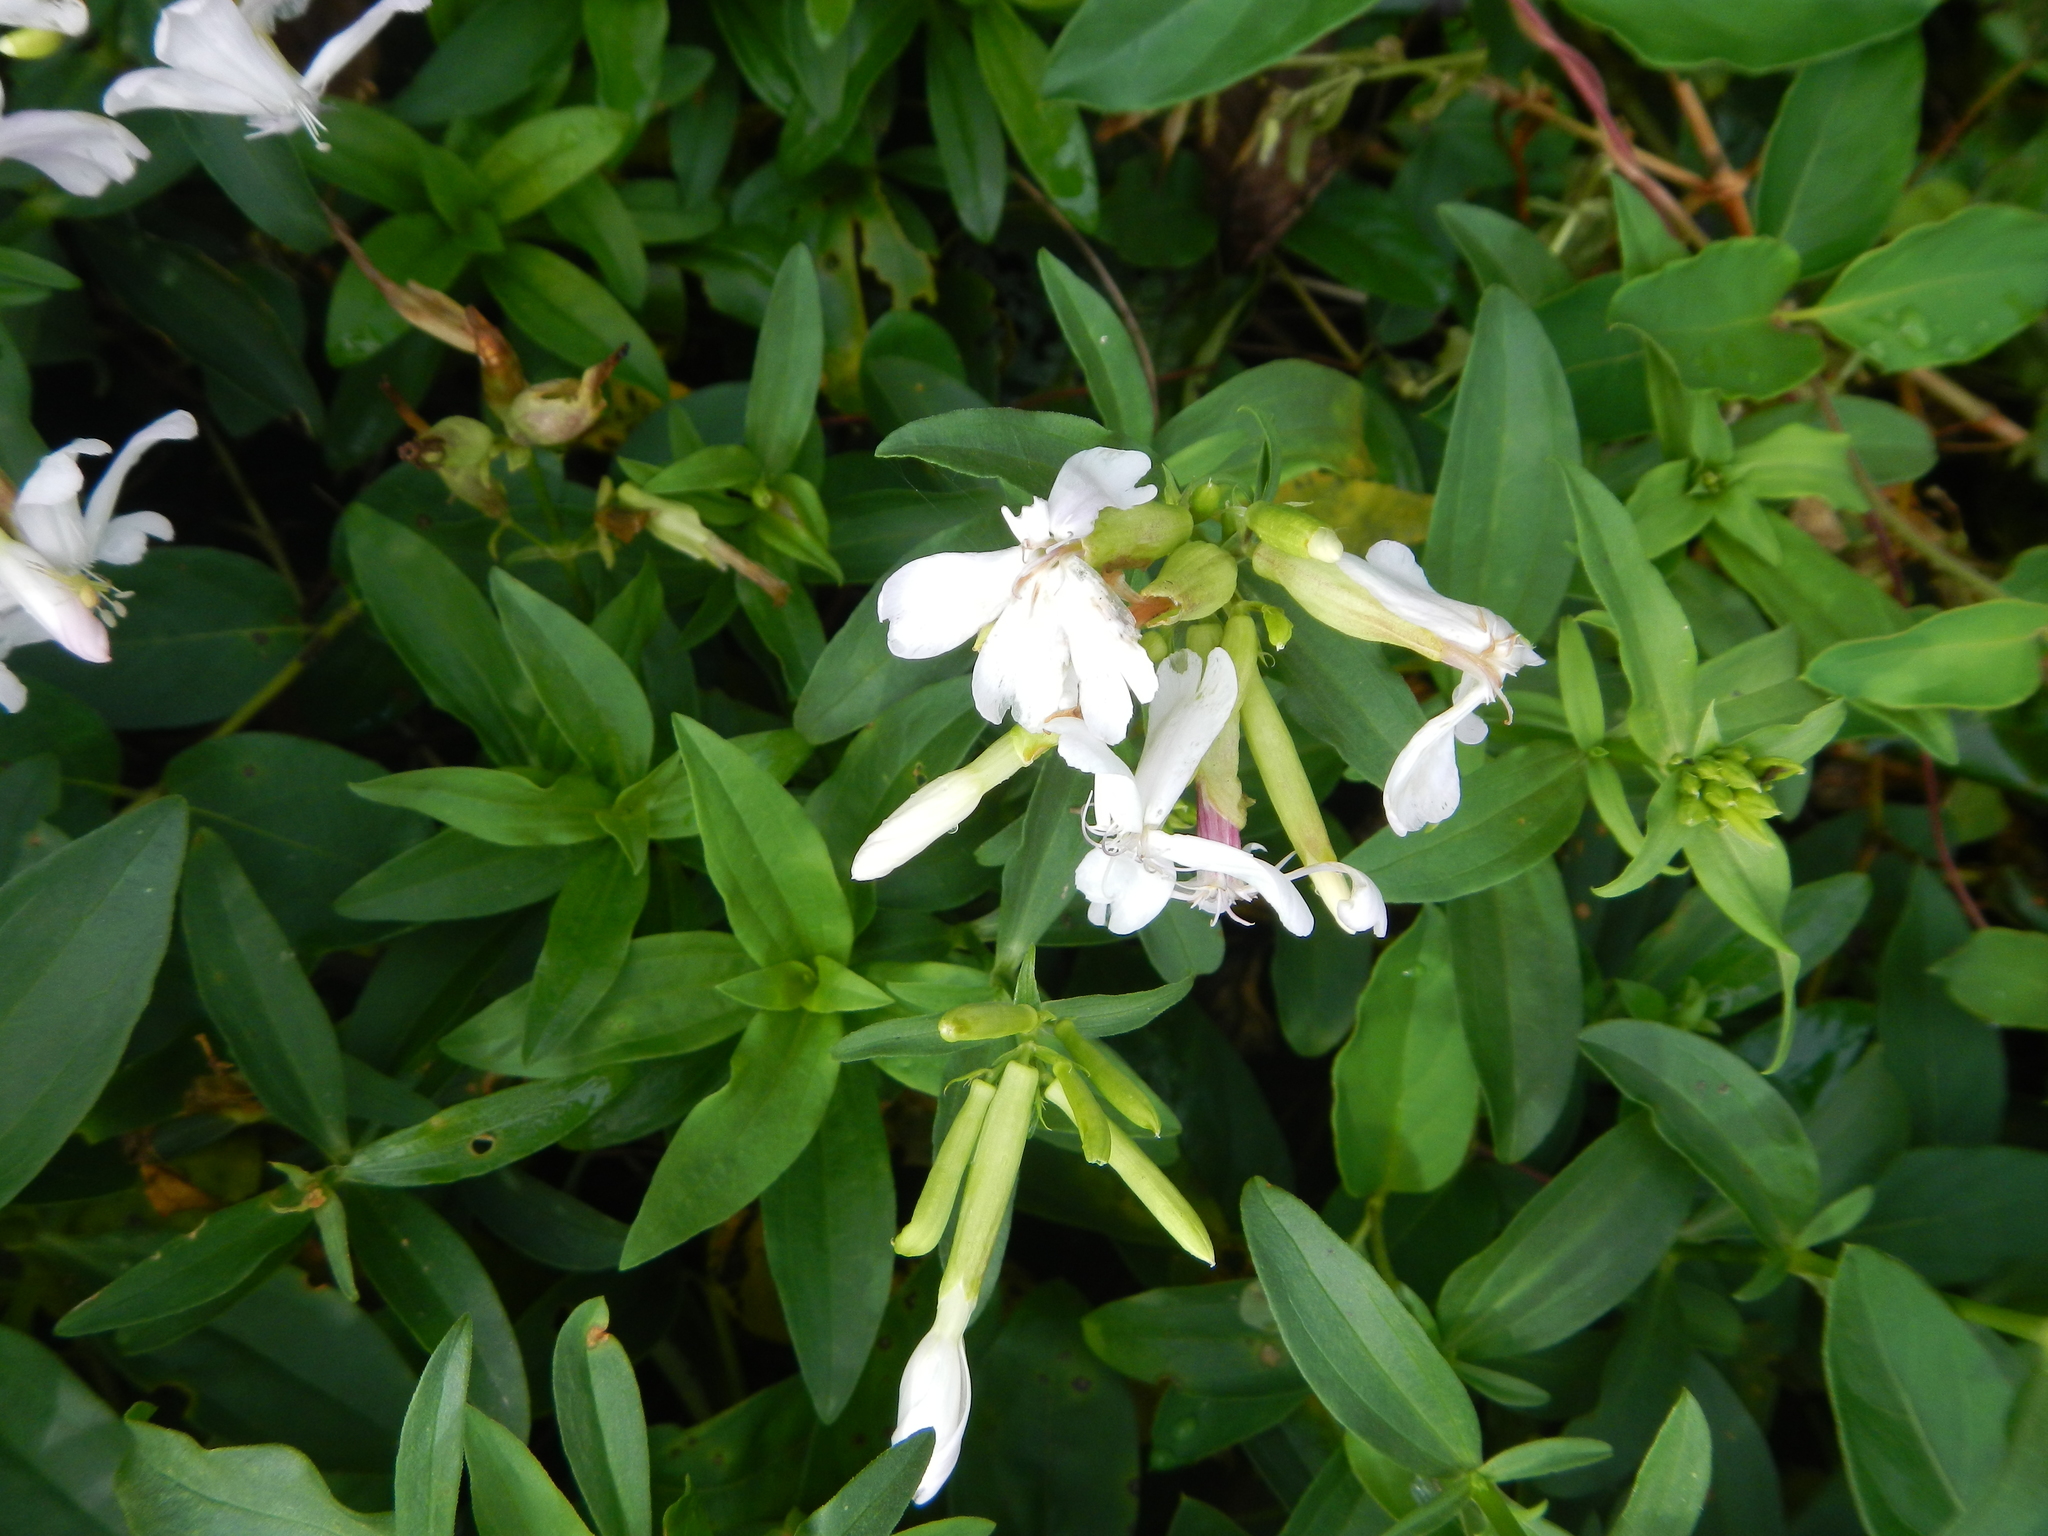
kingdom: Plantae
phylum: Tracheophyta
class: Magnoliopsida
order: Caryophyllales
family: Caryophyllaceae
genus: Saponaria
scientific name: Saponaria officinalis
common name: Soapwort
